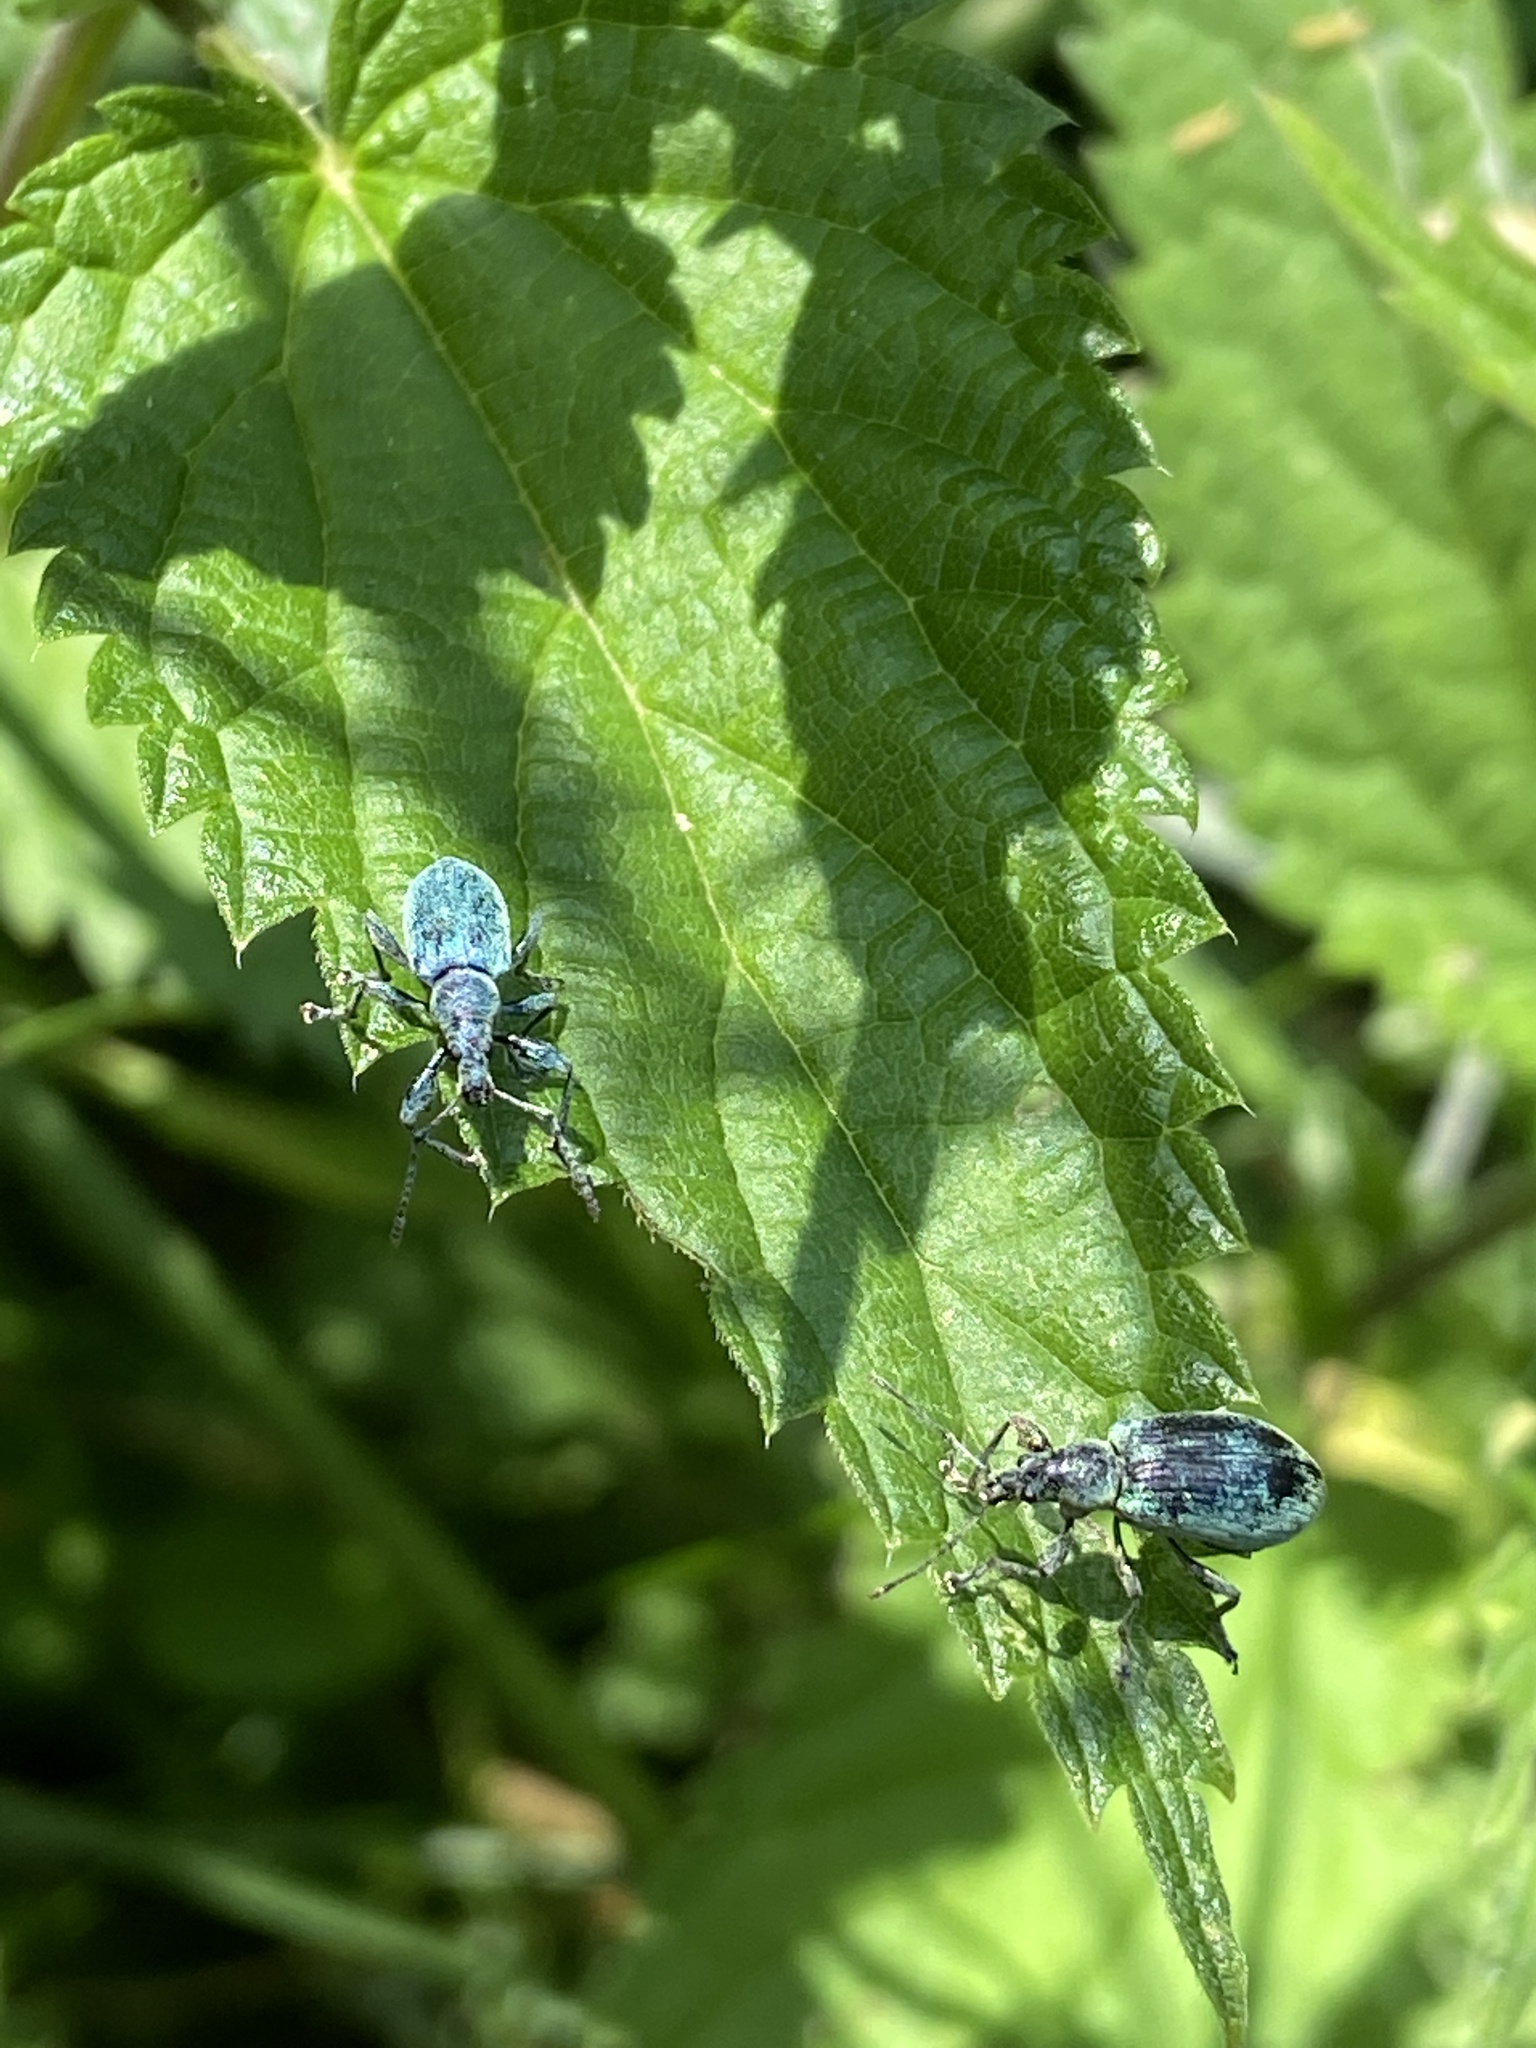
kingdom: Animalia
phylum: Arthropoda
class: Insecta
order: Coleoptera
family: Curculionidae
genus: Phyllobius
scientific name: Phyllobius pomaceus
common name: Green nettle weevil
